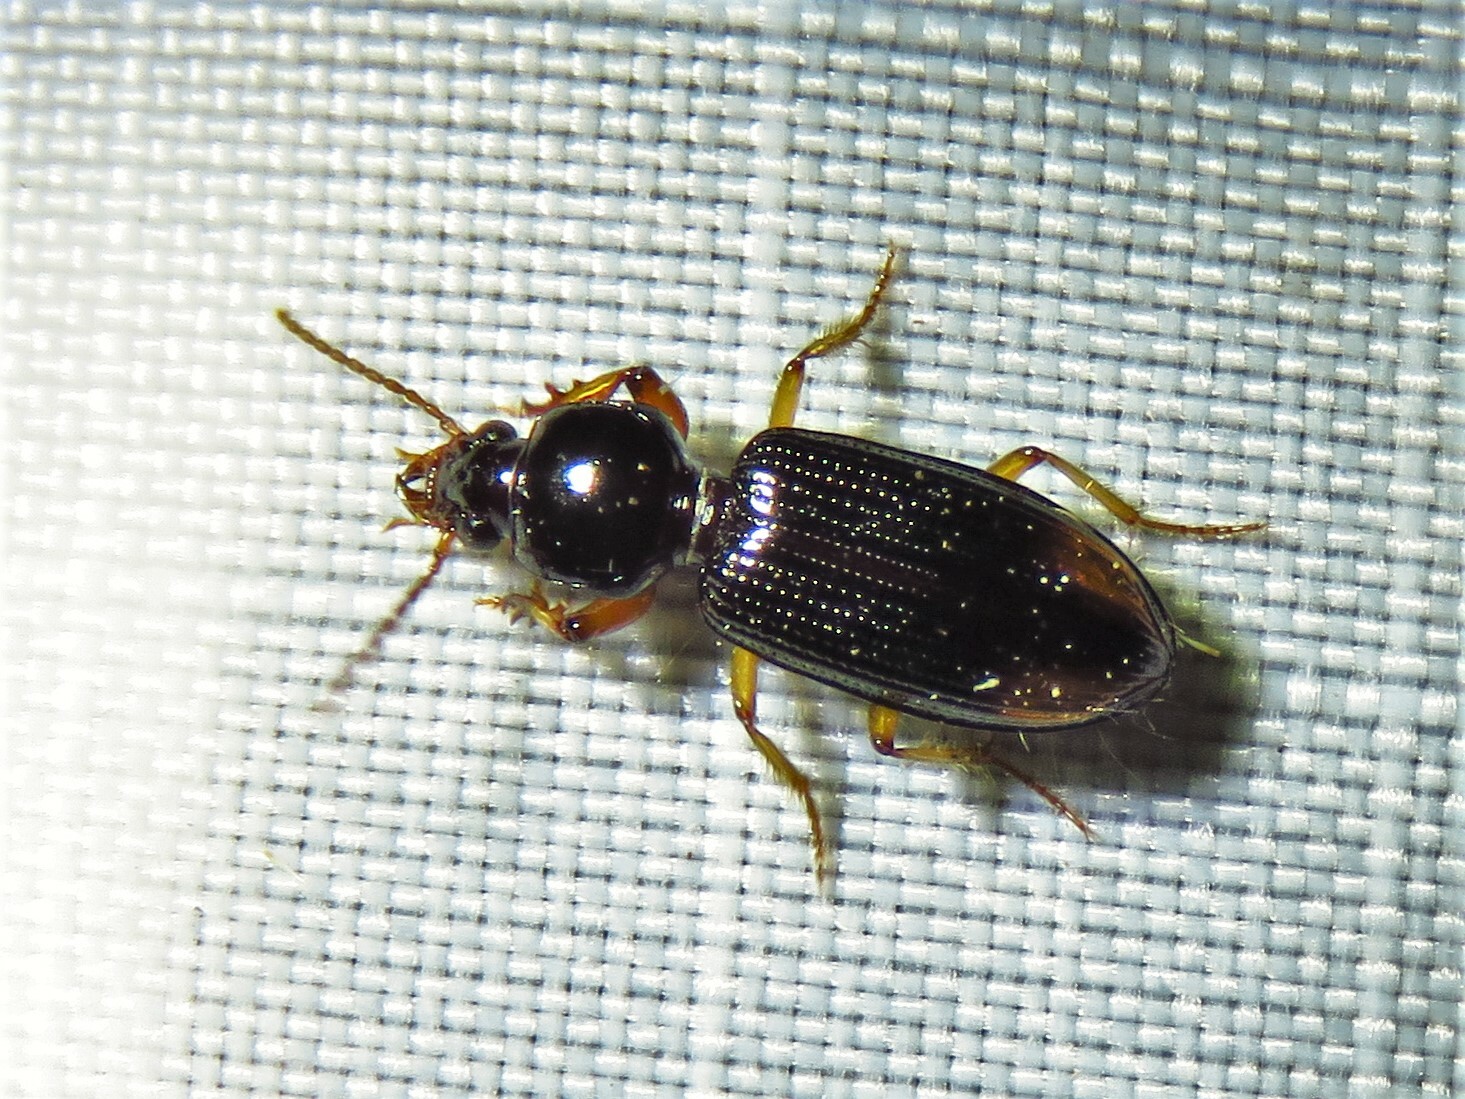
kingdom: Animalia
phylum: Arthropoda
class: Insecta
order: Coleoptera
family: Carabidae
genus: Aspidoglossa
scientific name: Aspidoglossa subangulata
